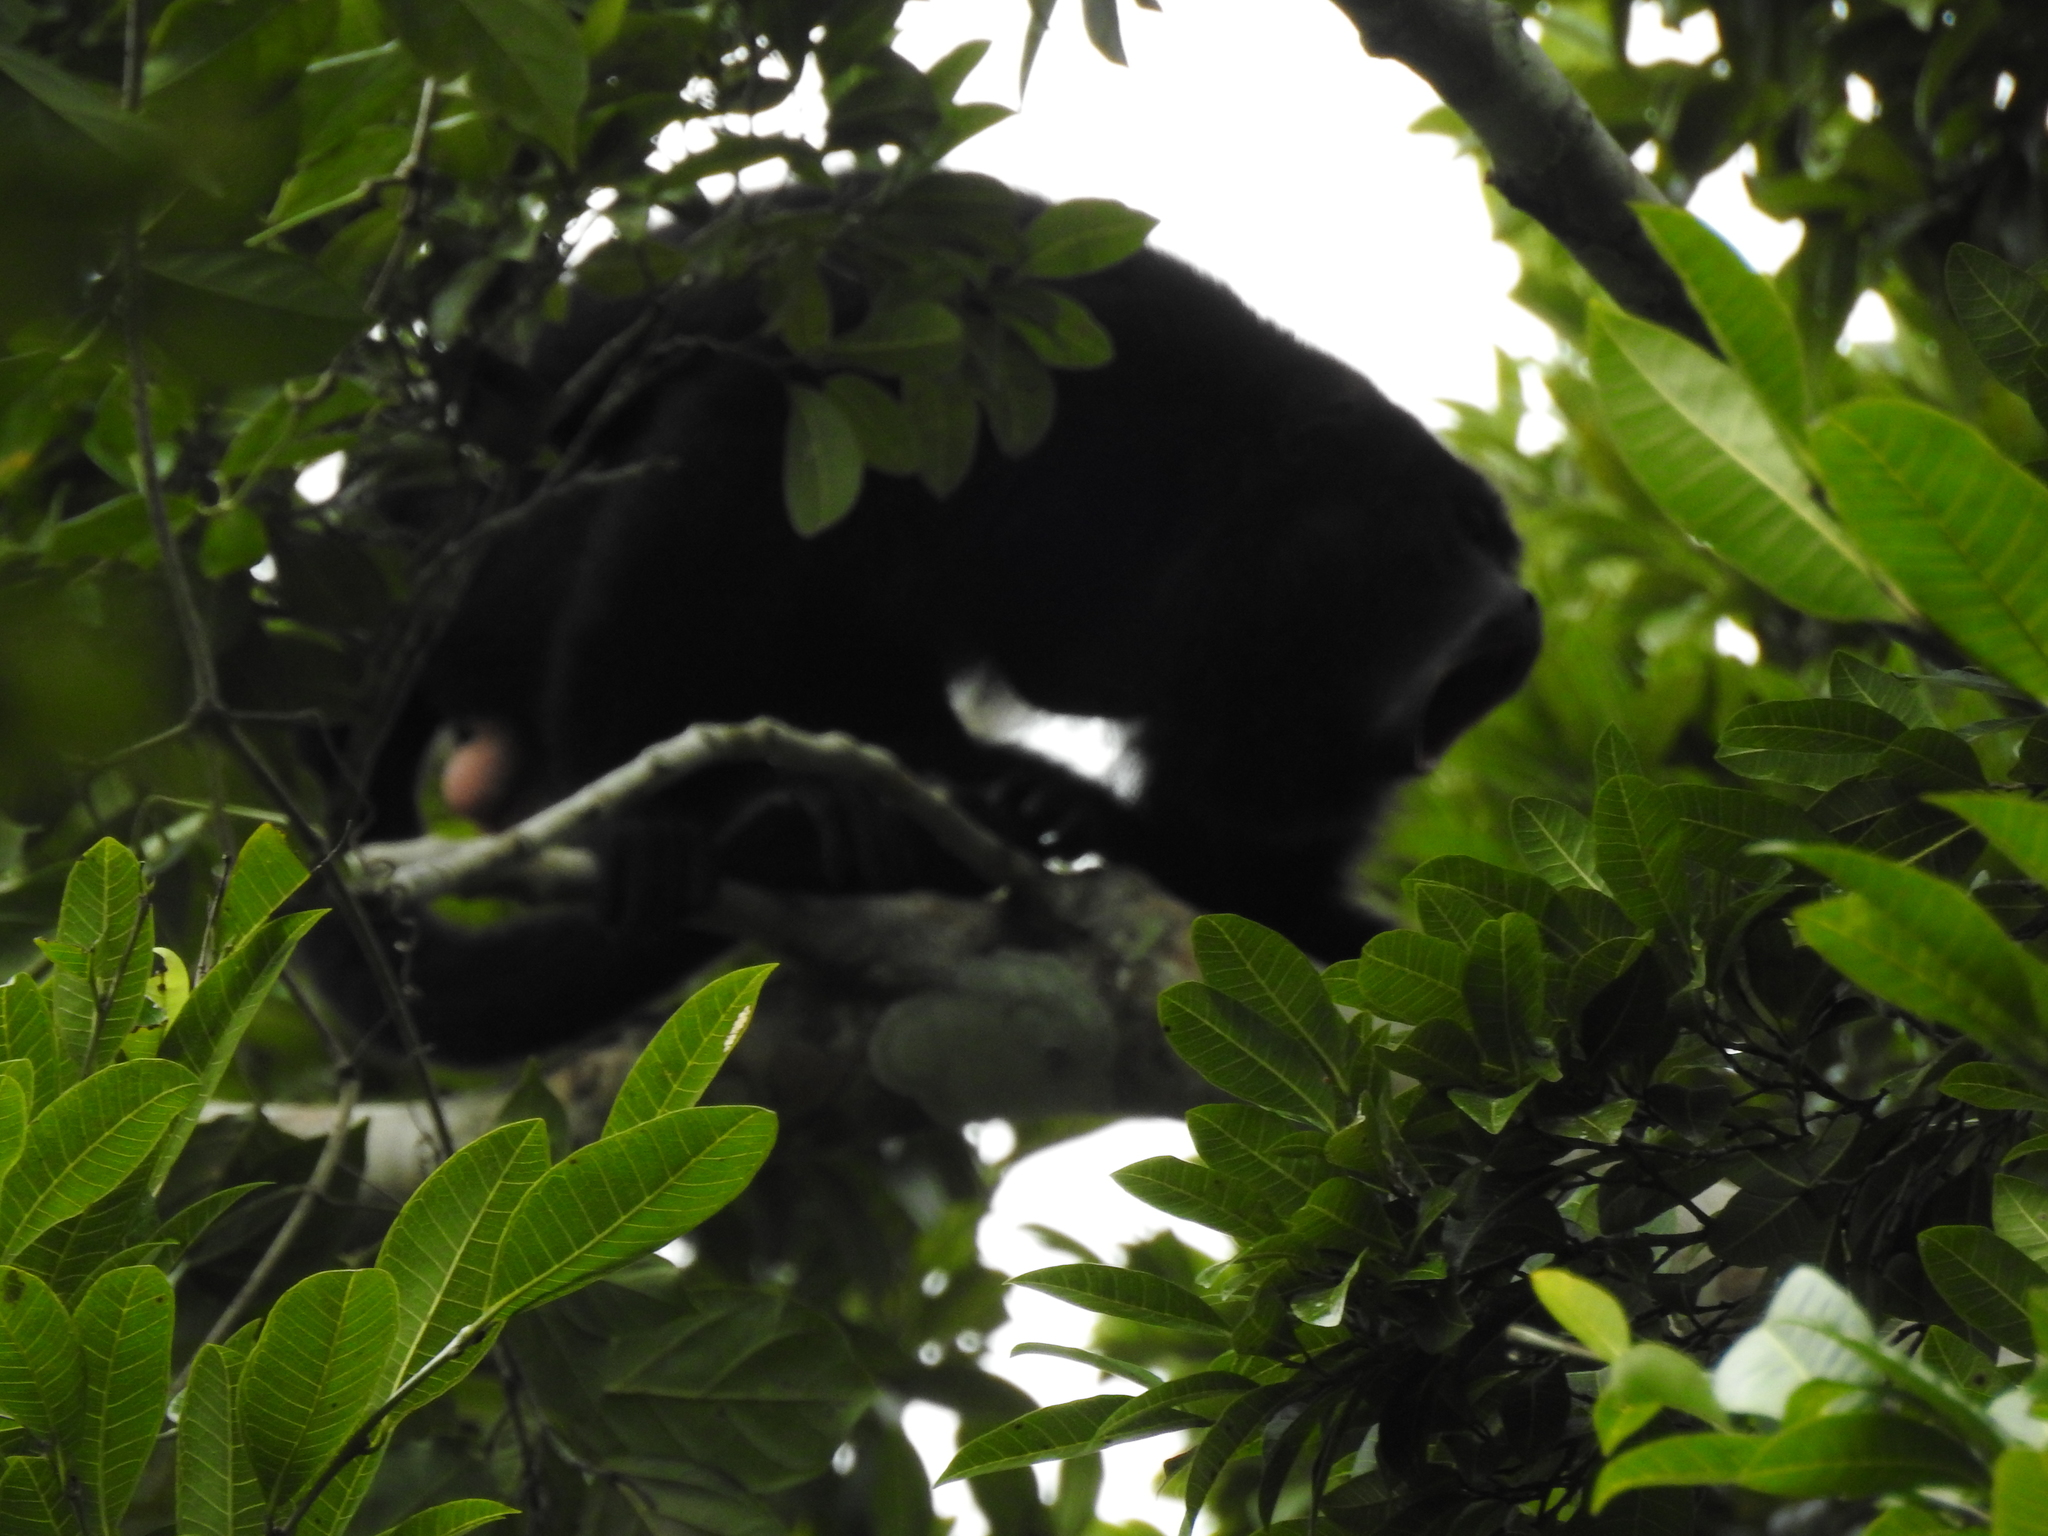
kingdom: Animalia
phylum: Chordata
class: Mammalia
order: Primates
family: Atelidae
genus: Alouatta
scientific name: Alouatta pigra
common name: Guatemalan black howler
